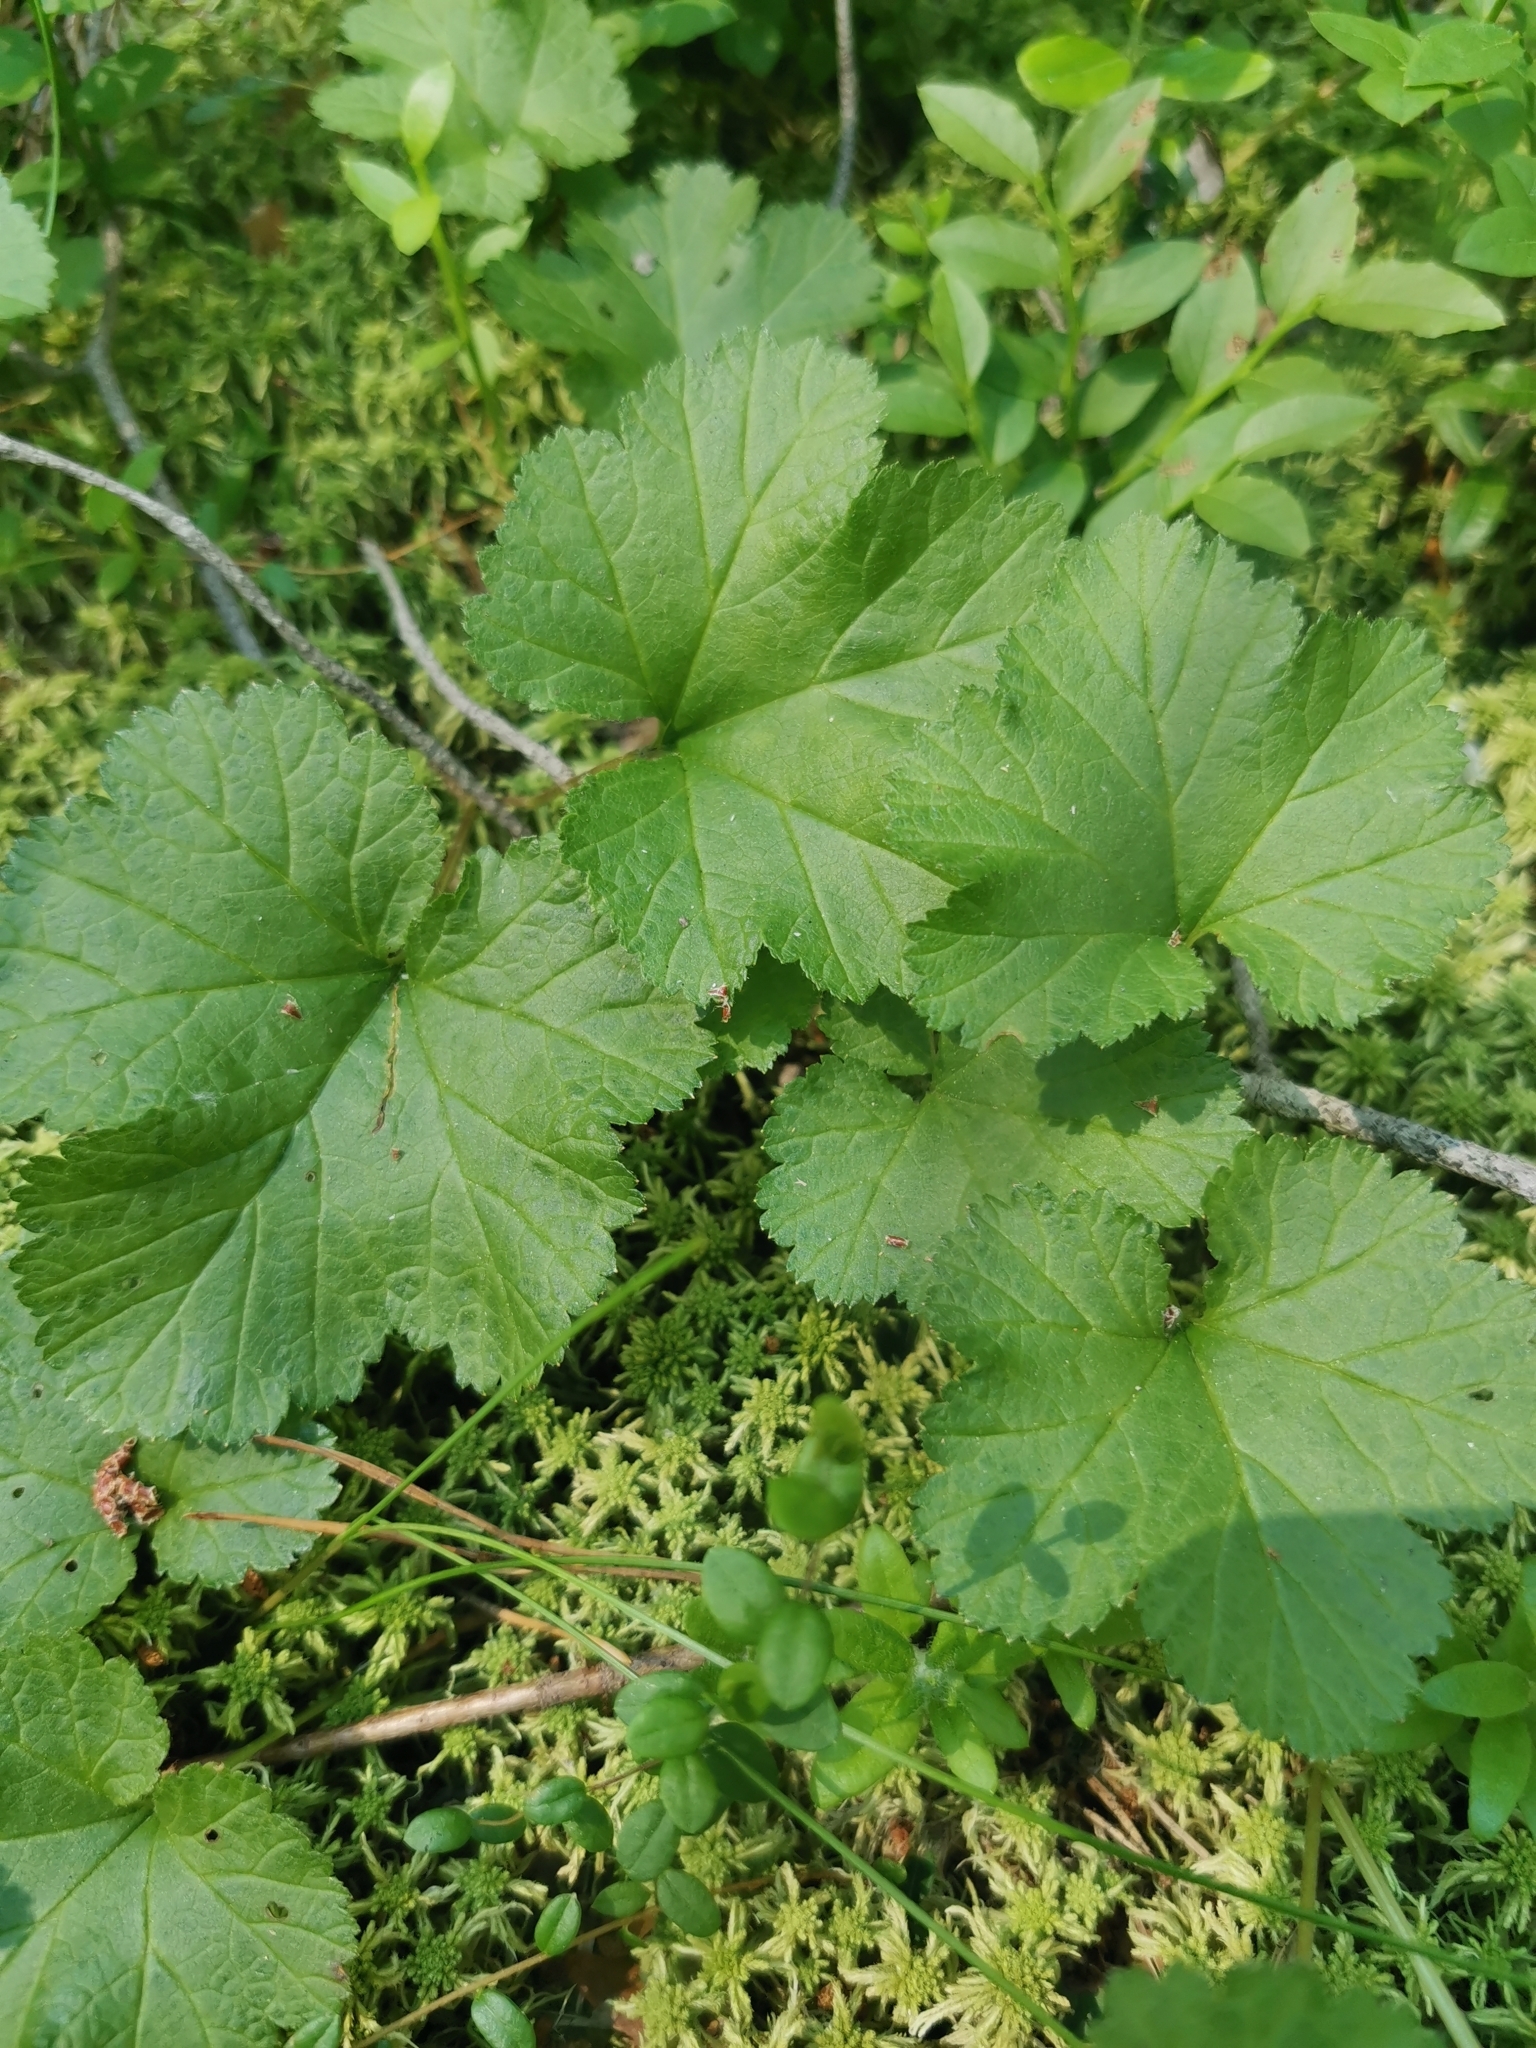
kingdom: Plantae
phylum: Tracheophyta
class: Magnoliopsida
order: Rosales
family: Rosaceae
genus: Rubus
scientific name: Rubus chamaemorus
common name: Cloudberry
